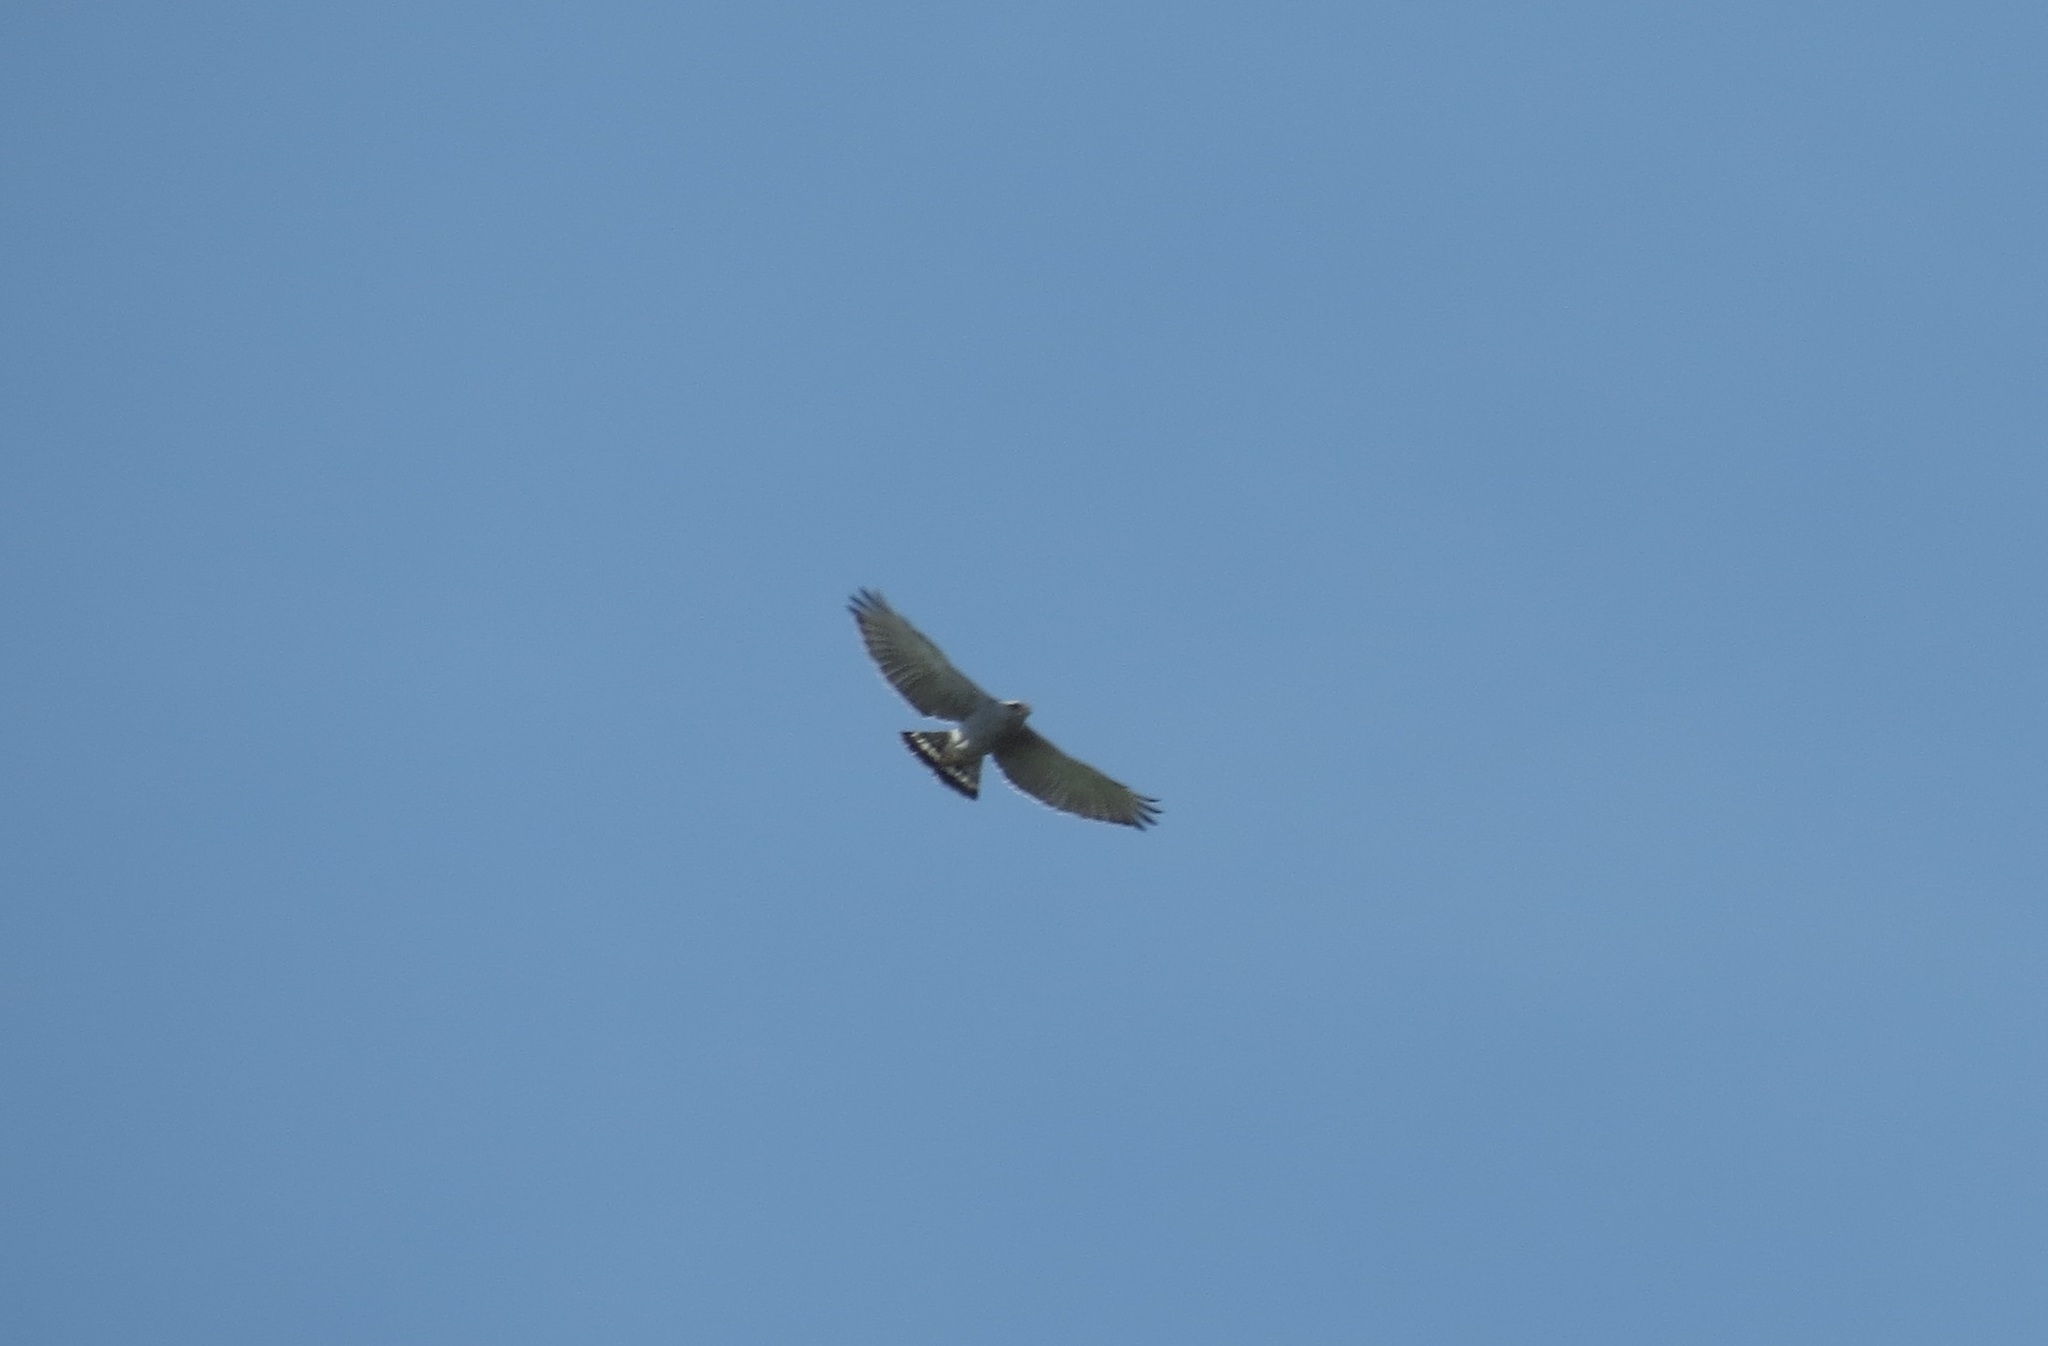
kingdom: Animalia
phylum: Chordata
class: Aves
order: Accipitriformes
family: Accipitridae
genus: Buteo
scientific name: Buteo nitidus
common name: Grey-lined hawk
